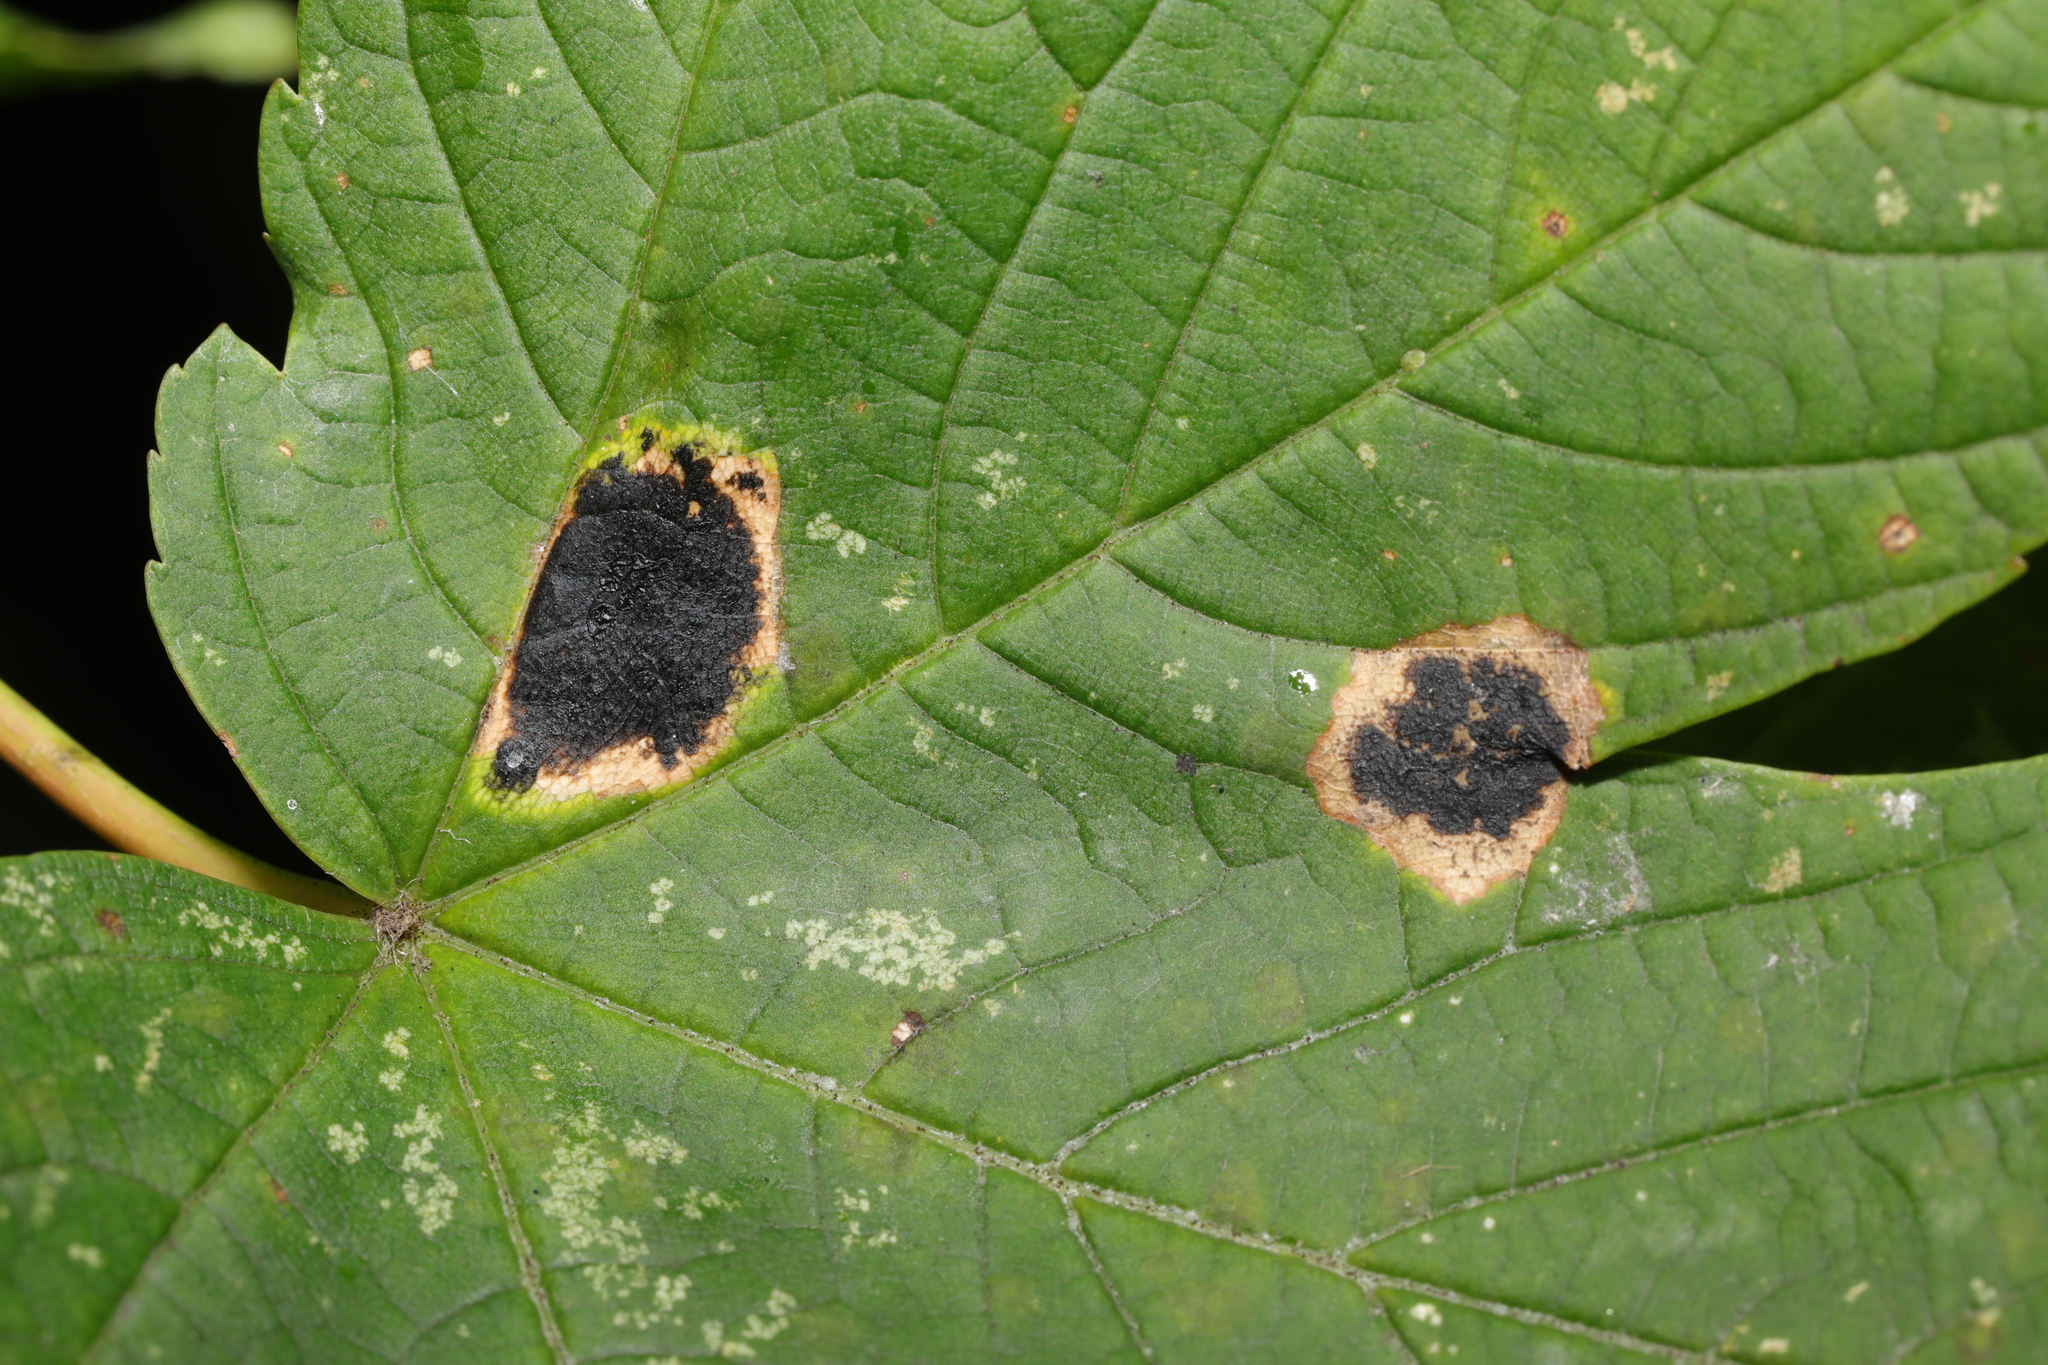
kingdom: Fungi
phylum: Ascomycota
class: Leotiomycetes
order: Rhytismatales
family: Rhytismataceae
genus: Rhytisma
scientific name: Rhytisma acerinum
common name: European tar spot
